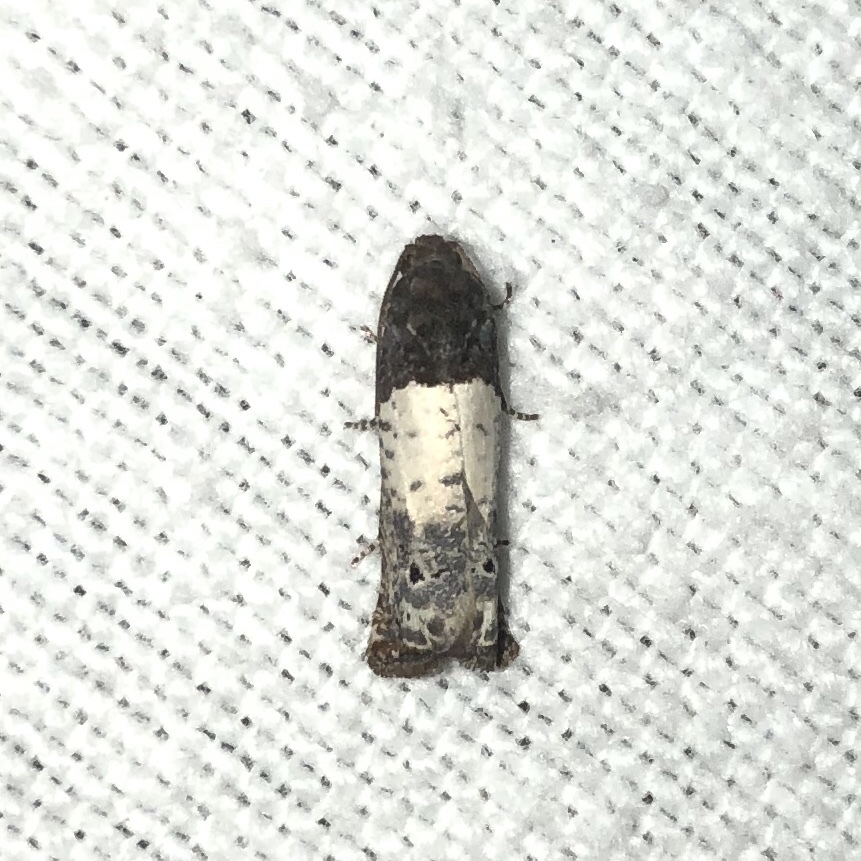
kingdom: Animalia
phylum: Arthropoda
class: Insecta
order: Lepidoptera
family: Tortricidae
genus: Epiblema
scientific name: Epiblema scudderiana
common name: Goldenrod gall moth
